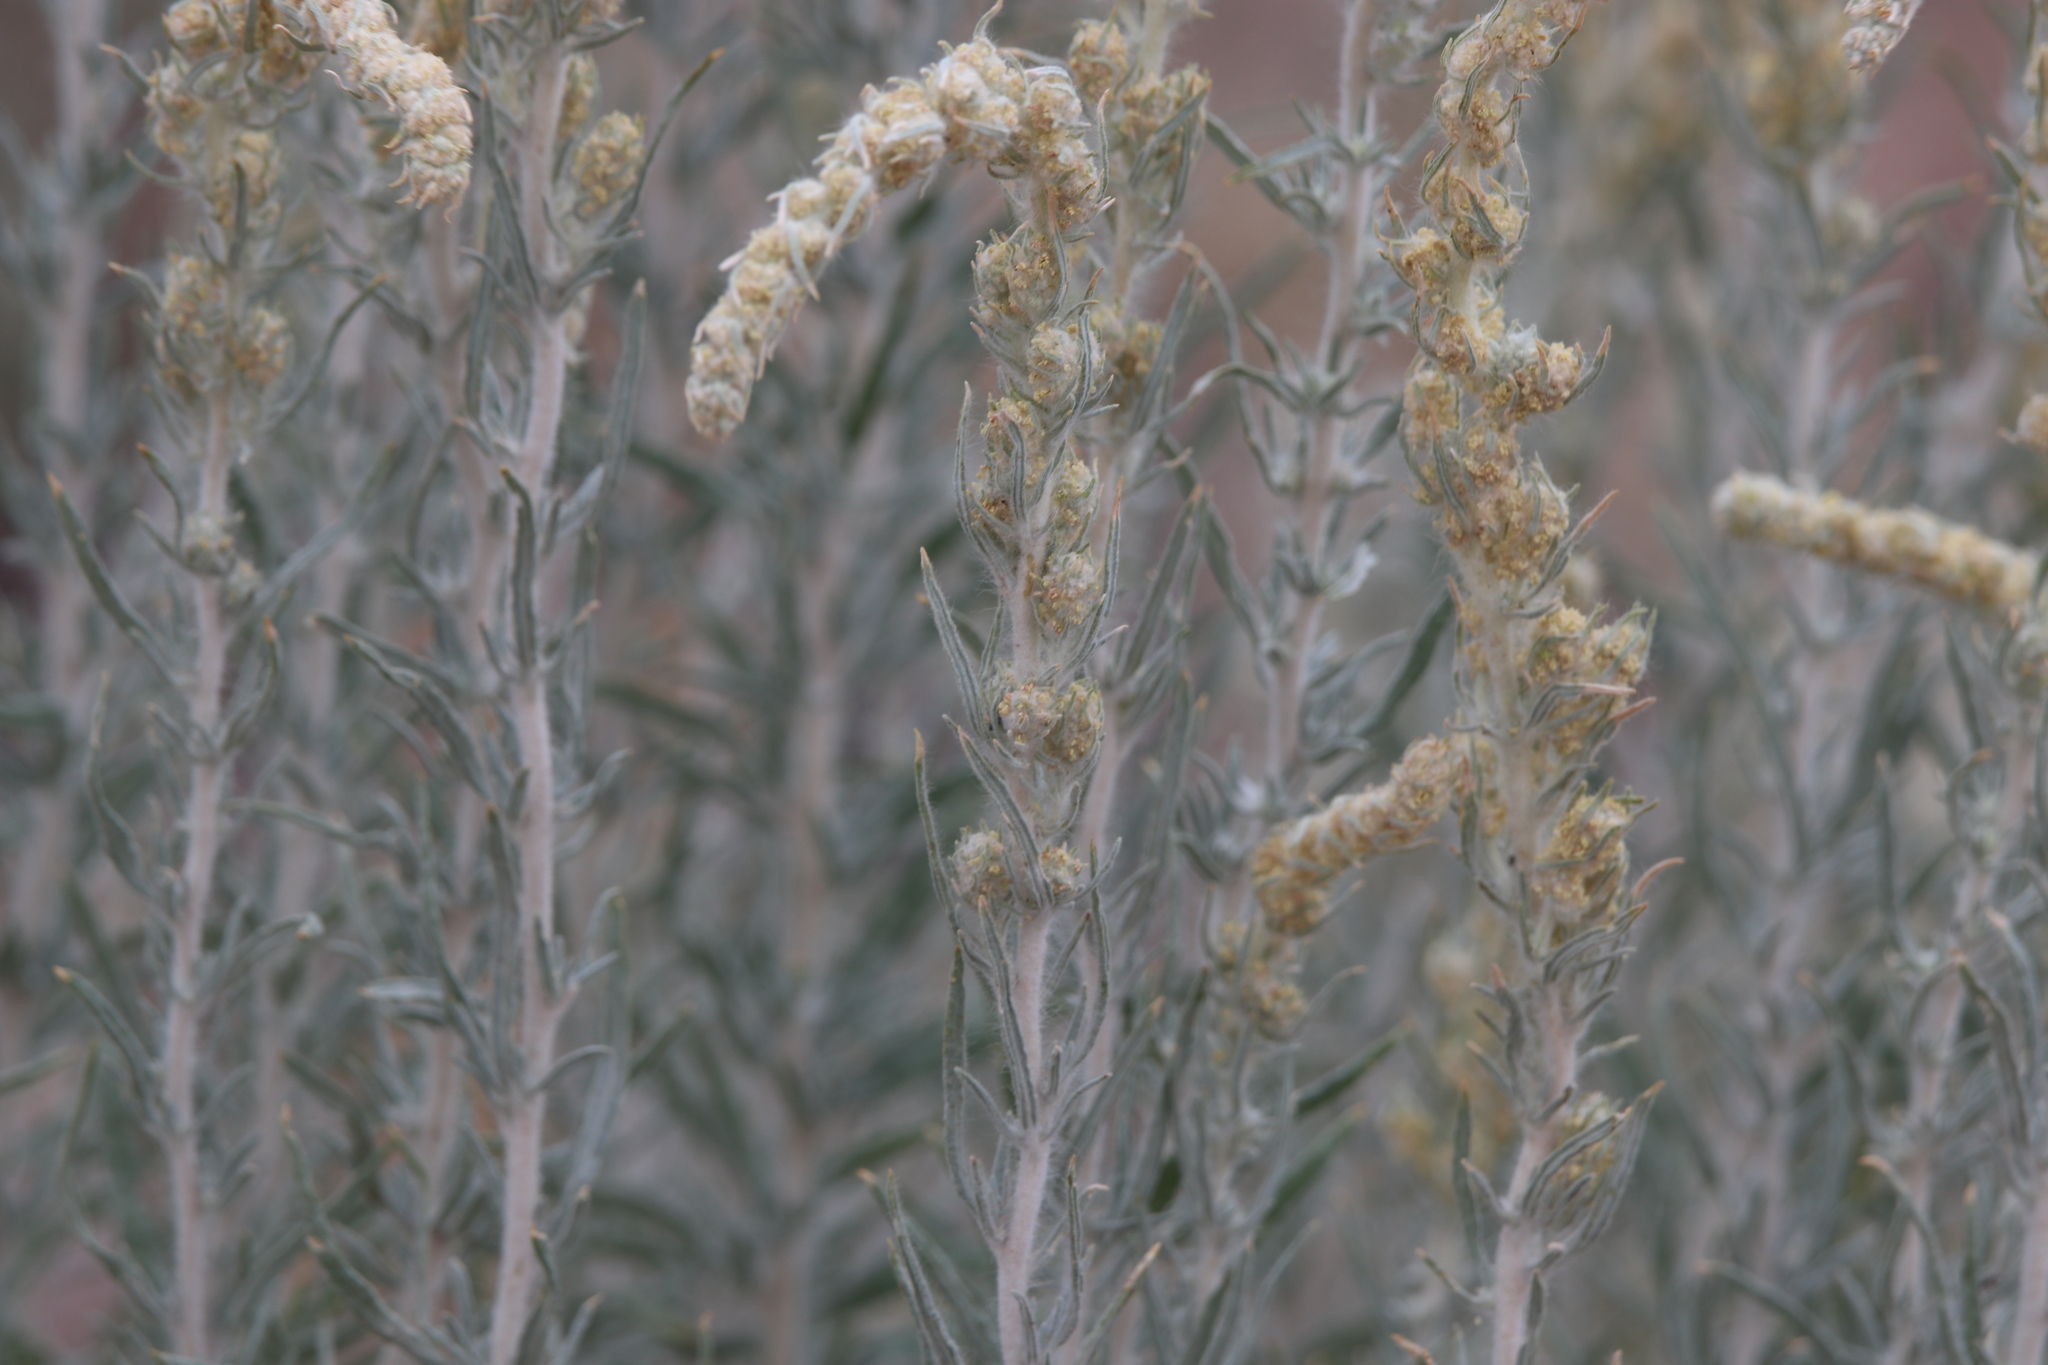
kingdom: Plantae
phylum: Tracheophyta
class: Magnoliopsida
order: Caryophyllales
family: Amaranthaceae
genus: Krascheninnikovia
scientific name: Krascheninnikovia lanata
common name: Winterfat
